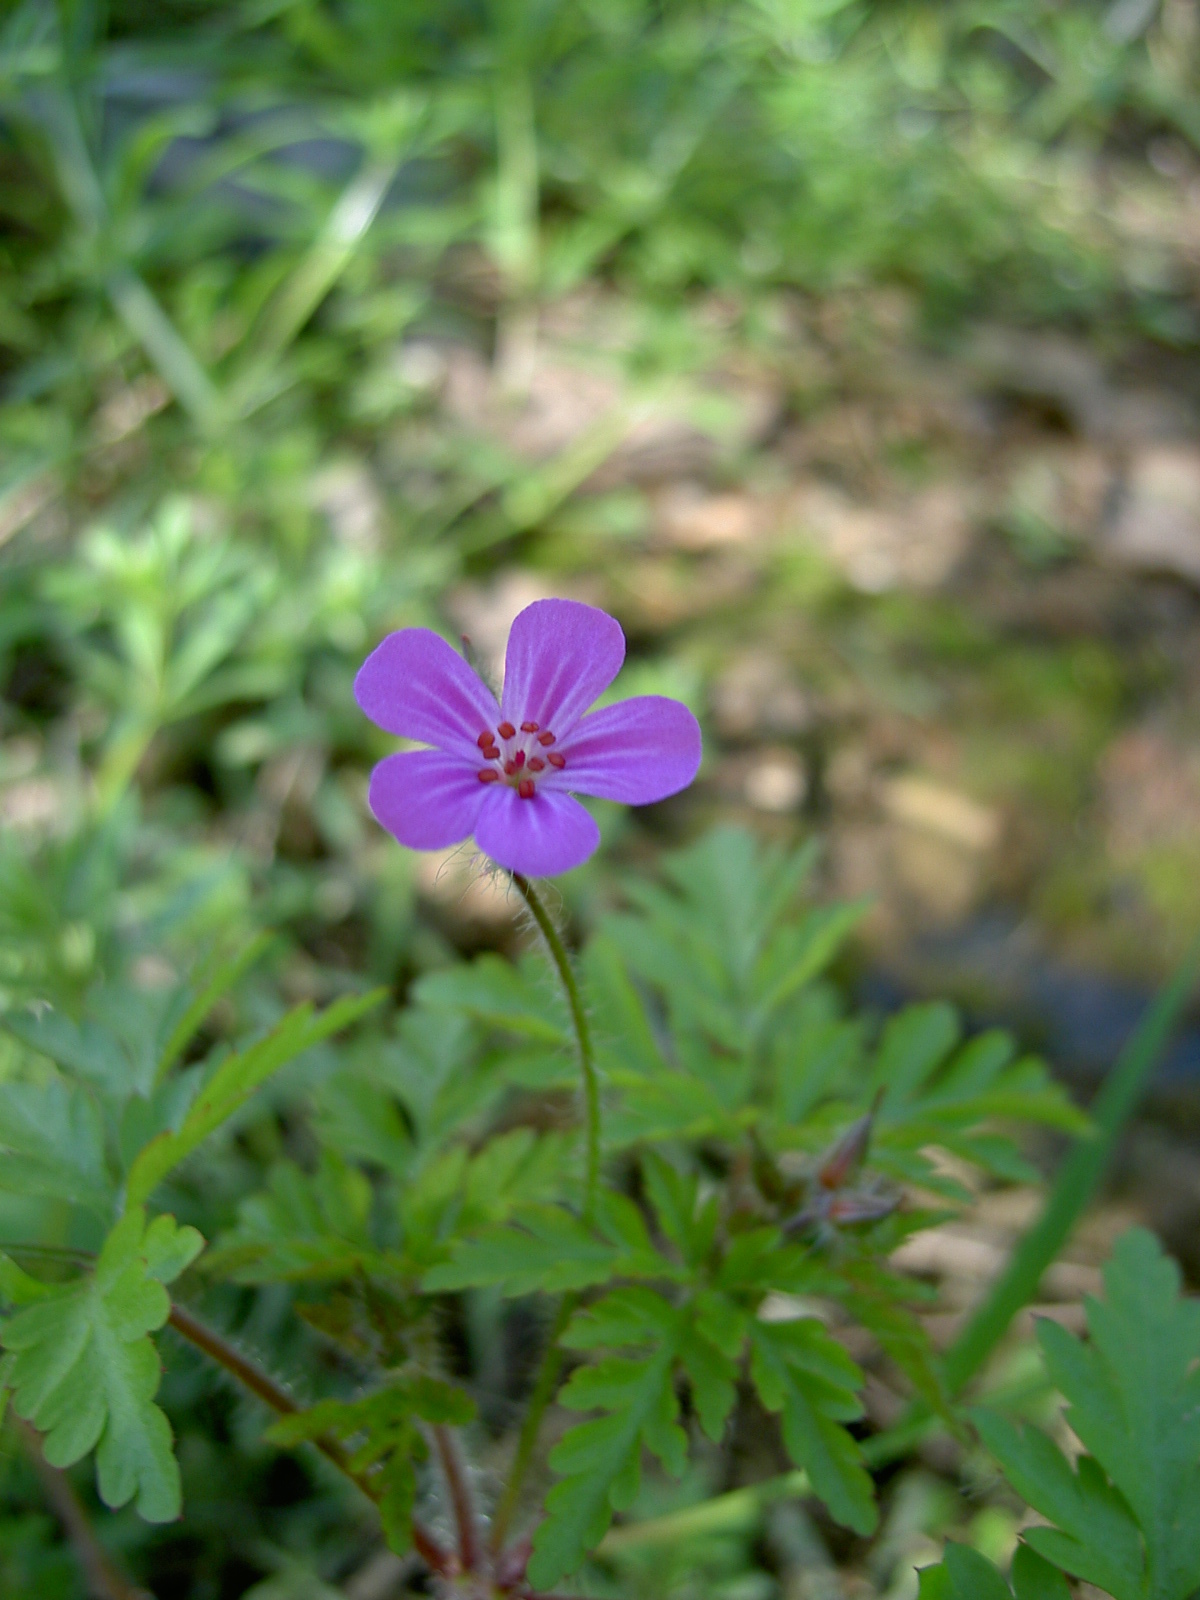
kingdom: Plantae
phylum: Tracheophyta
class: Magnoliopsida
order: Geraniales
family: Geraniaceae
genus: Geranium
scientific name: Geranium robertianum
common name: Herb-robert
